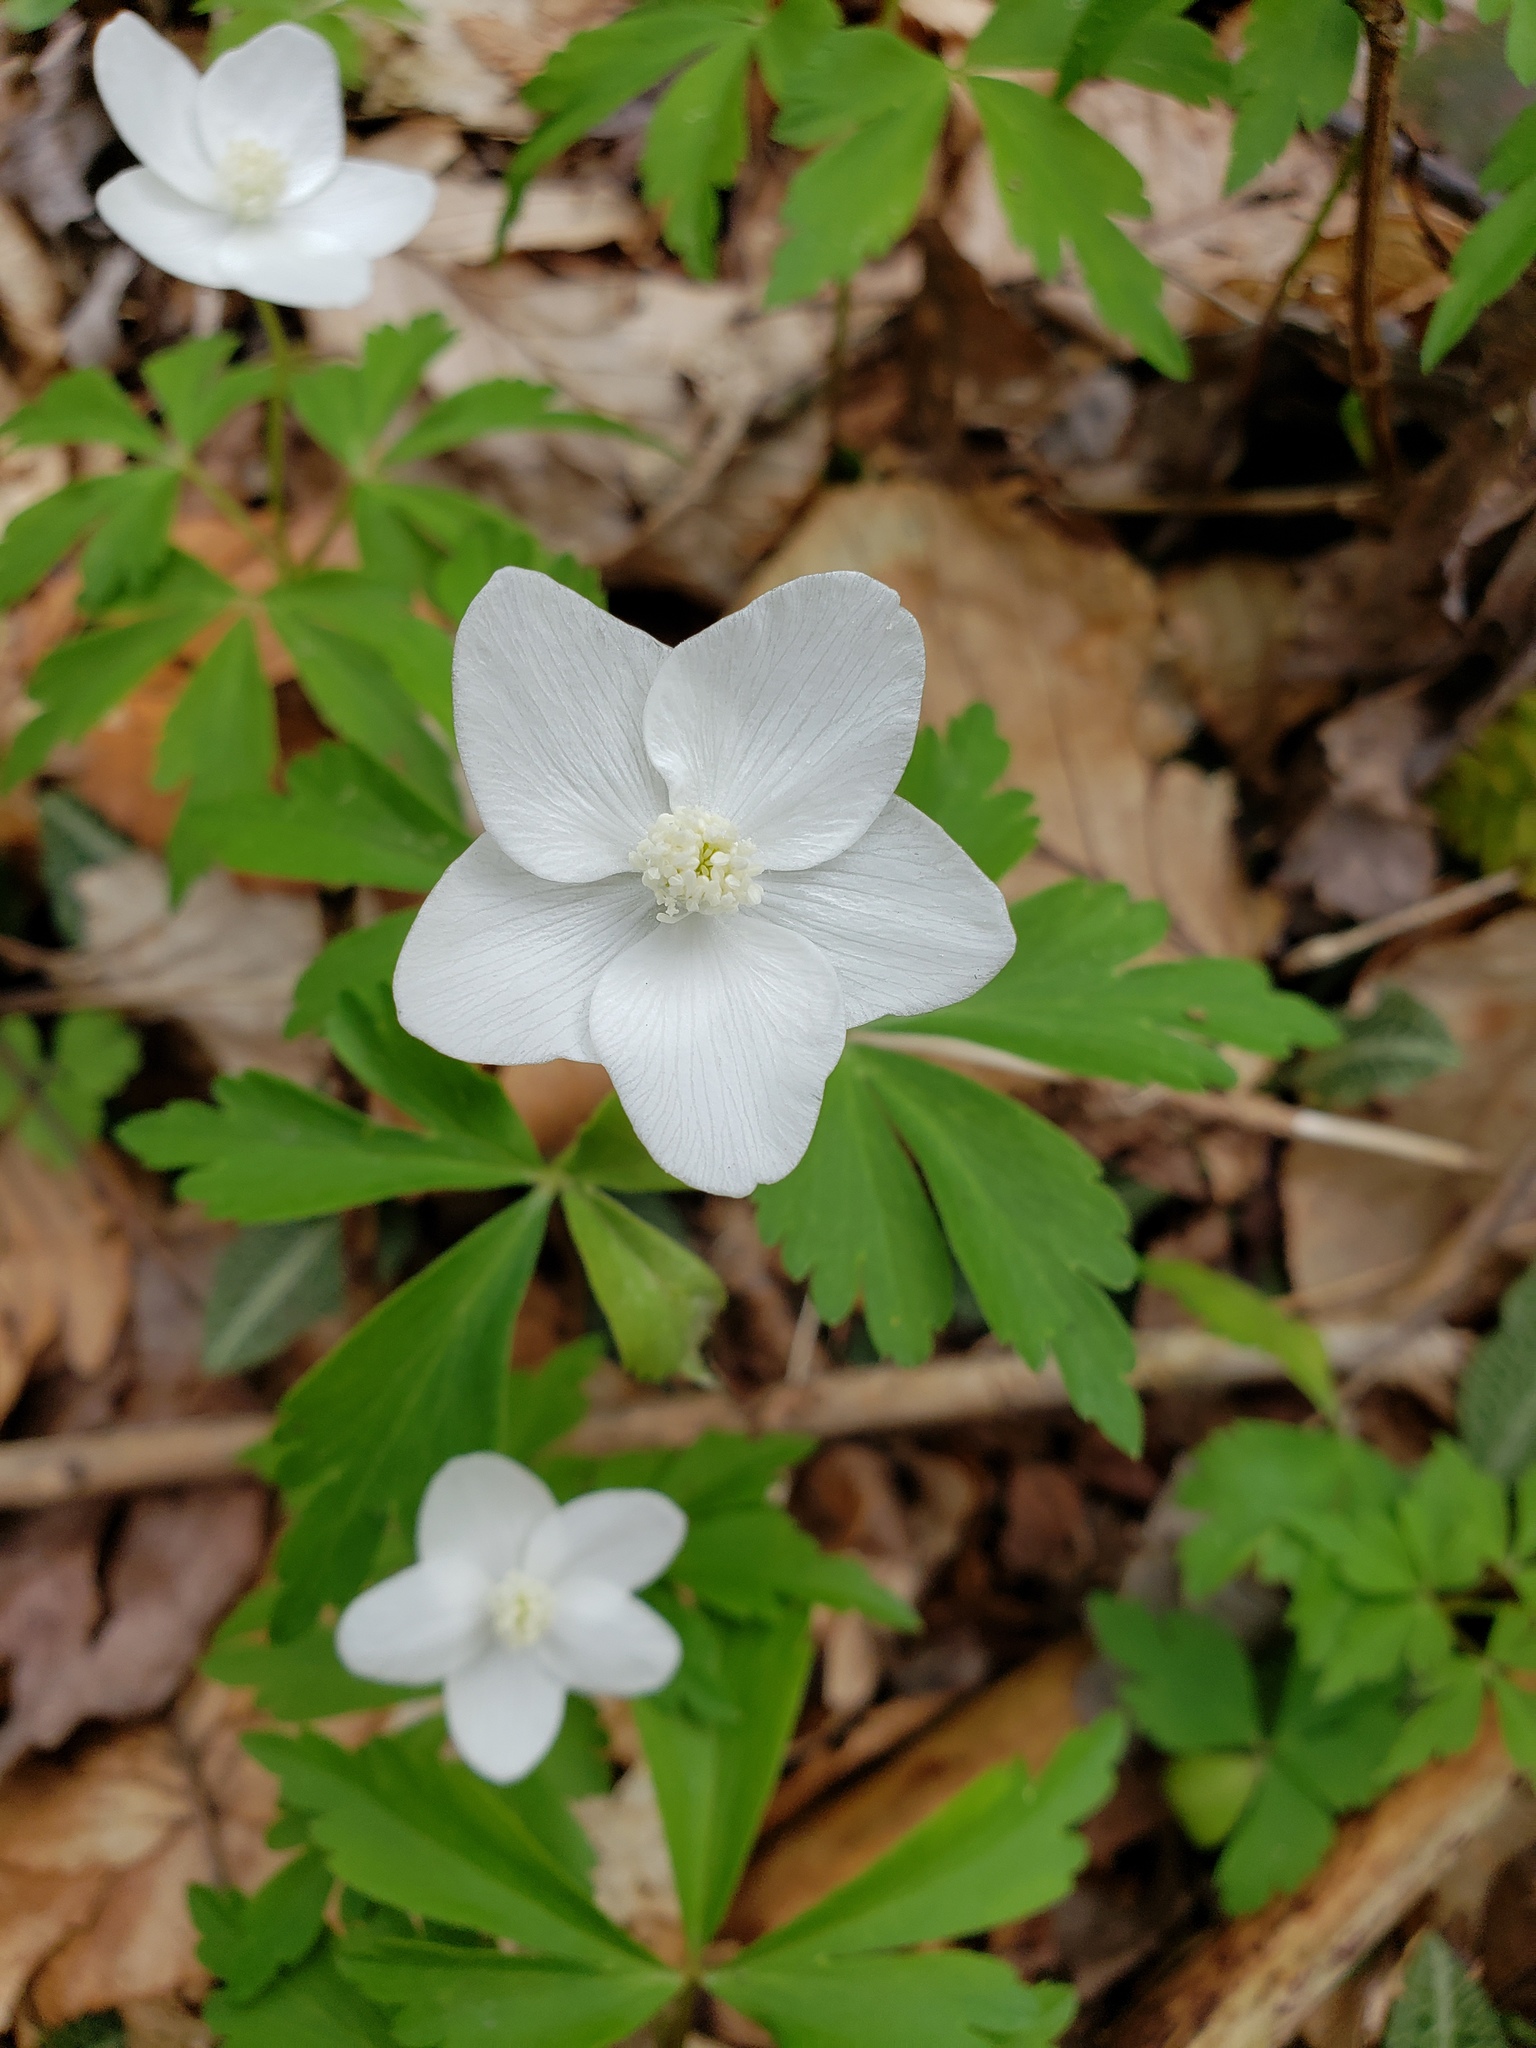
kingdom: Plantae
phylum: Tracheophyta
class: Magnoliopsida
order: Ranunculales
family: Ranunculaceae
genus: Anemone
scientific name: Anemone quinquefolia
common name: Wood anemone
